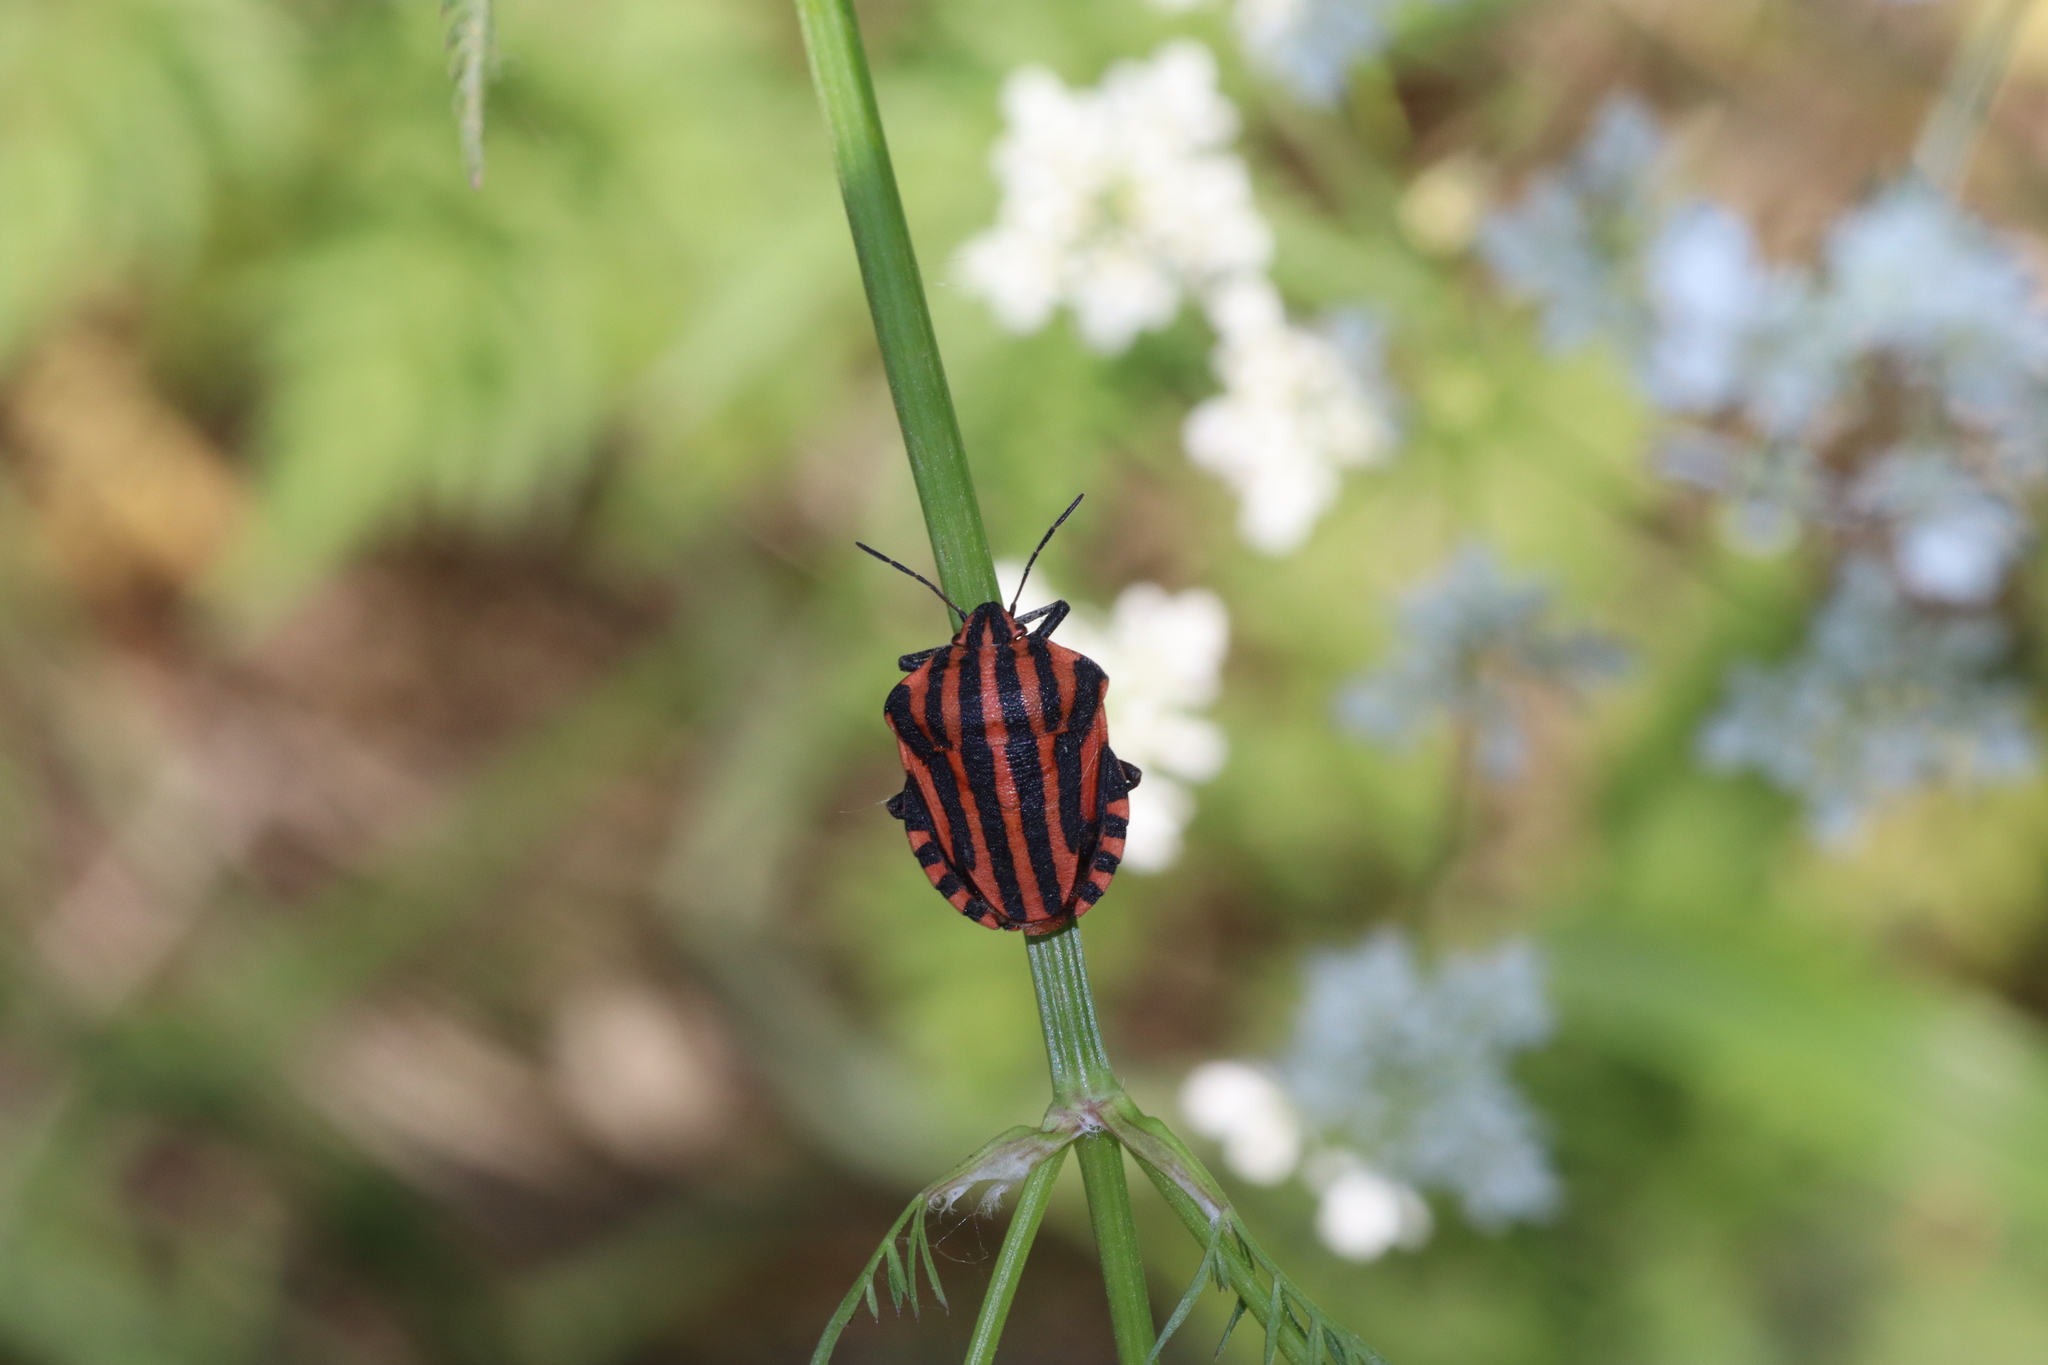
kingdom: Animalia
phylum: Arthropoda
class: Insecta
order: Hemiptera
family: Pentatomidae
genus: Graphosoma
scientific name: Graphosoma italicum
